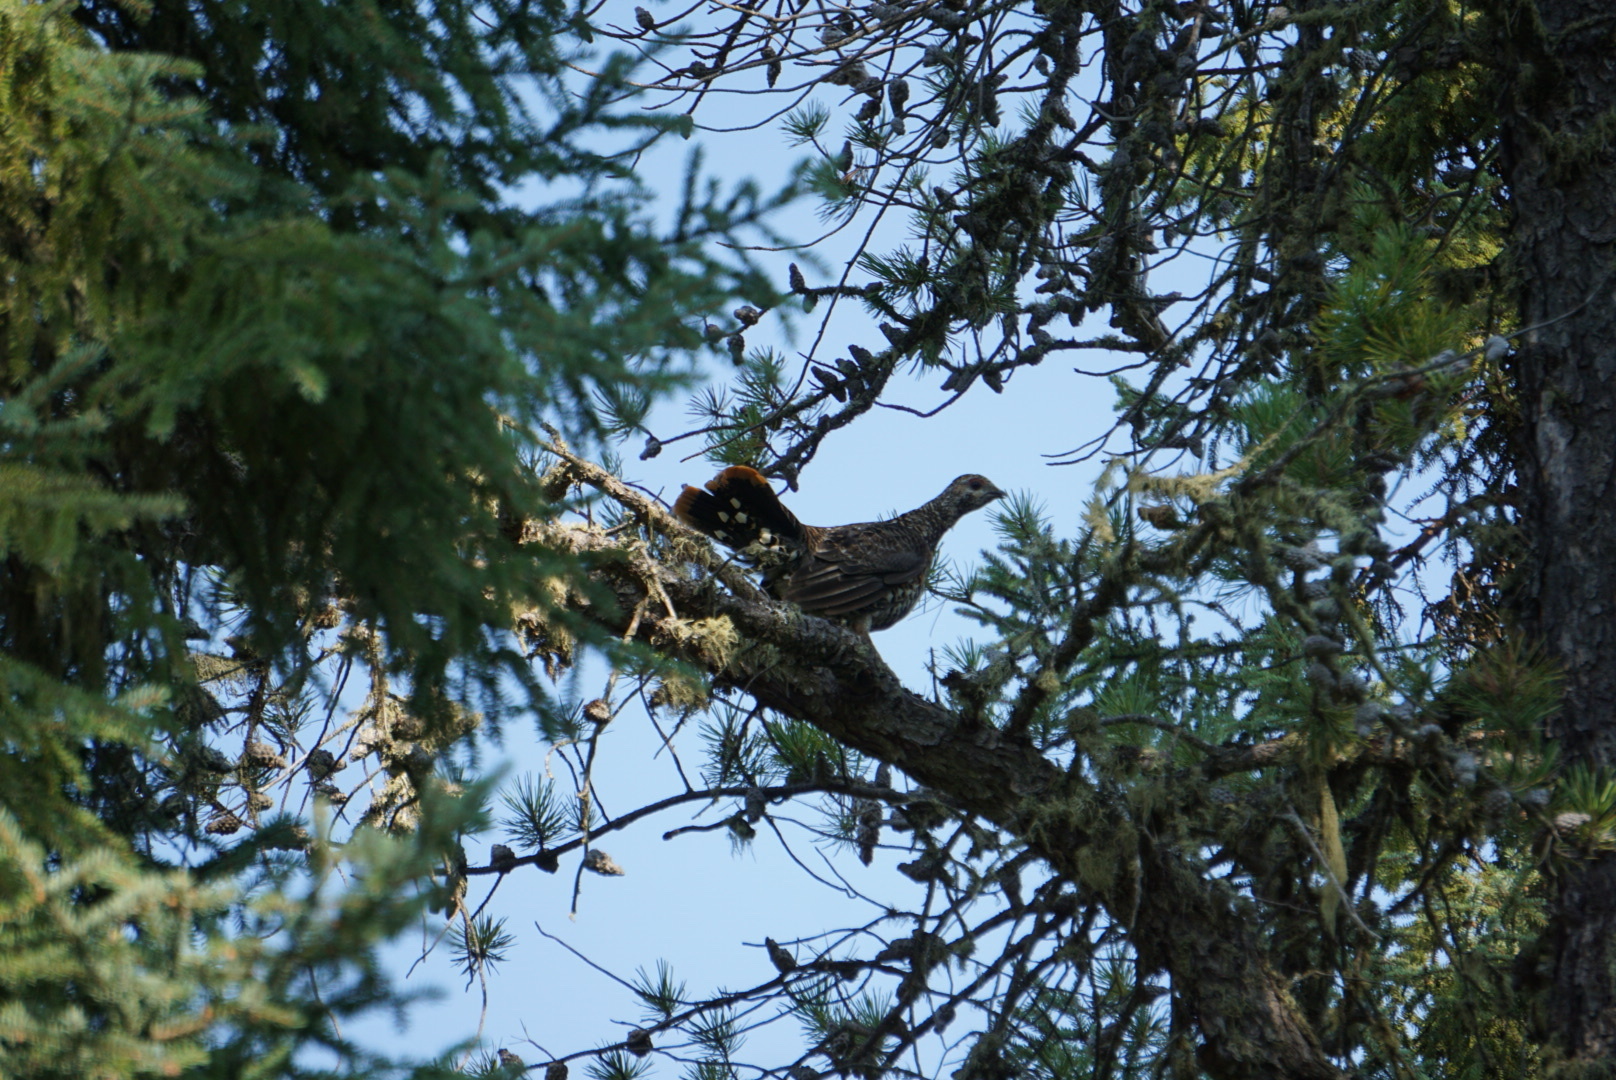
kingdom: Animalia
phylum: Chordata
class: Aves
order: Galliformes
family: Phasianidae
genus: Canachites
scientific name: Canachites canadensis
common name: Spruce grouse
